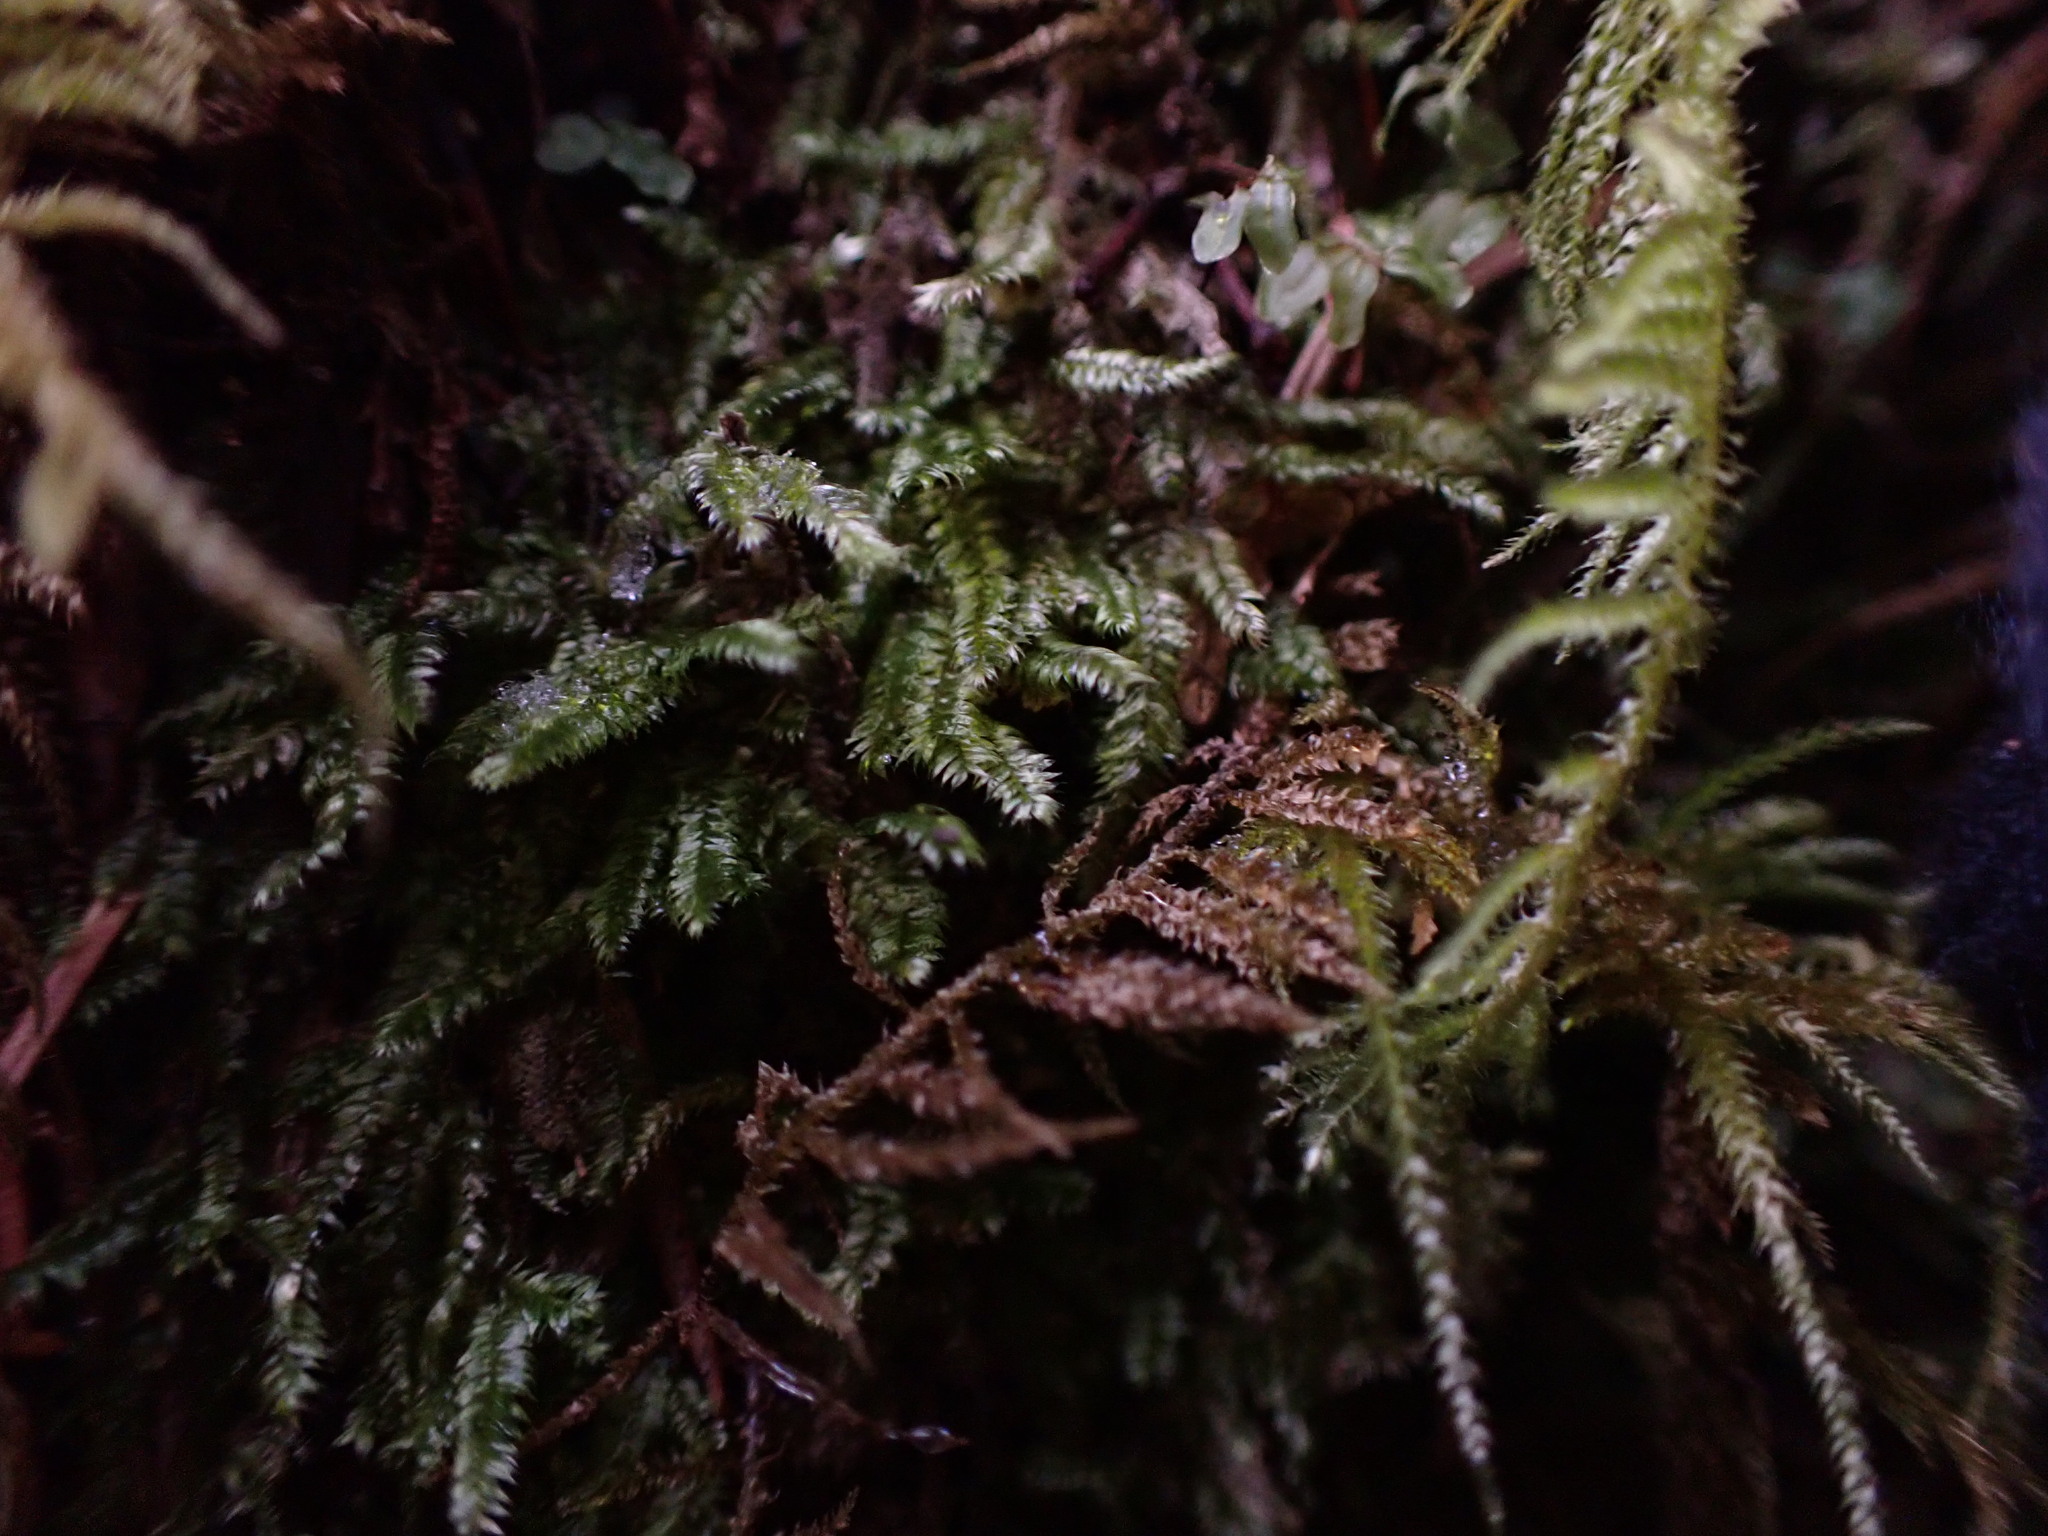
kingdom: Plantae
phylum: Bryophyta
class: Bryopsida
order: Hypnales
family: Plagiotheciaceae
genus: Pseudotaxiphyllum
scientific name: Pseudotaxiphyllum elegans
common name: Elegant silk moss
